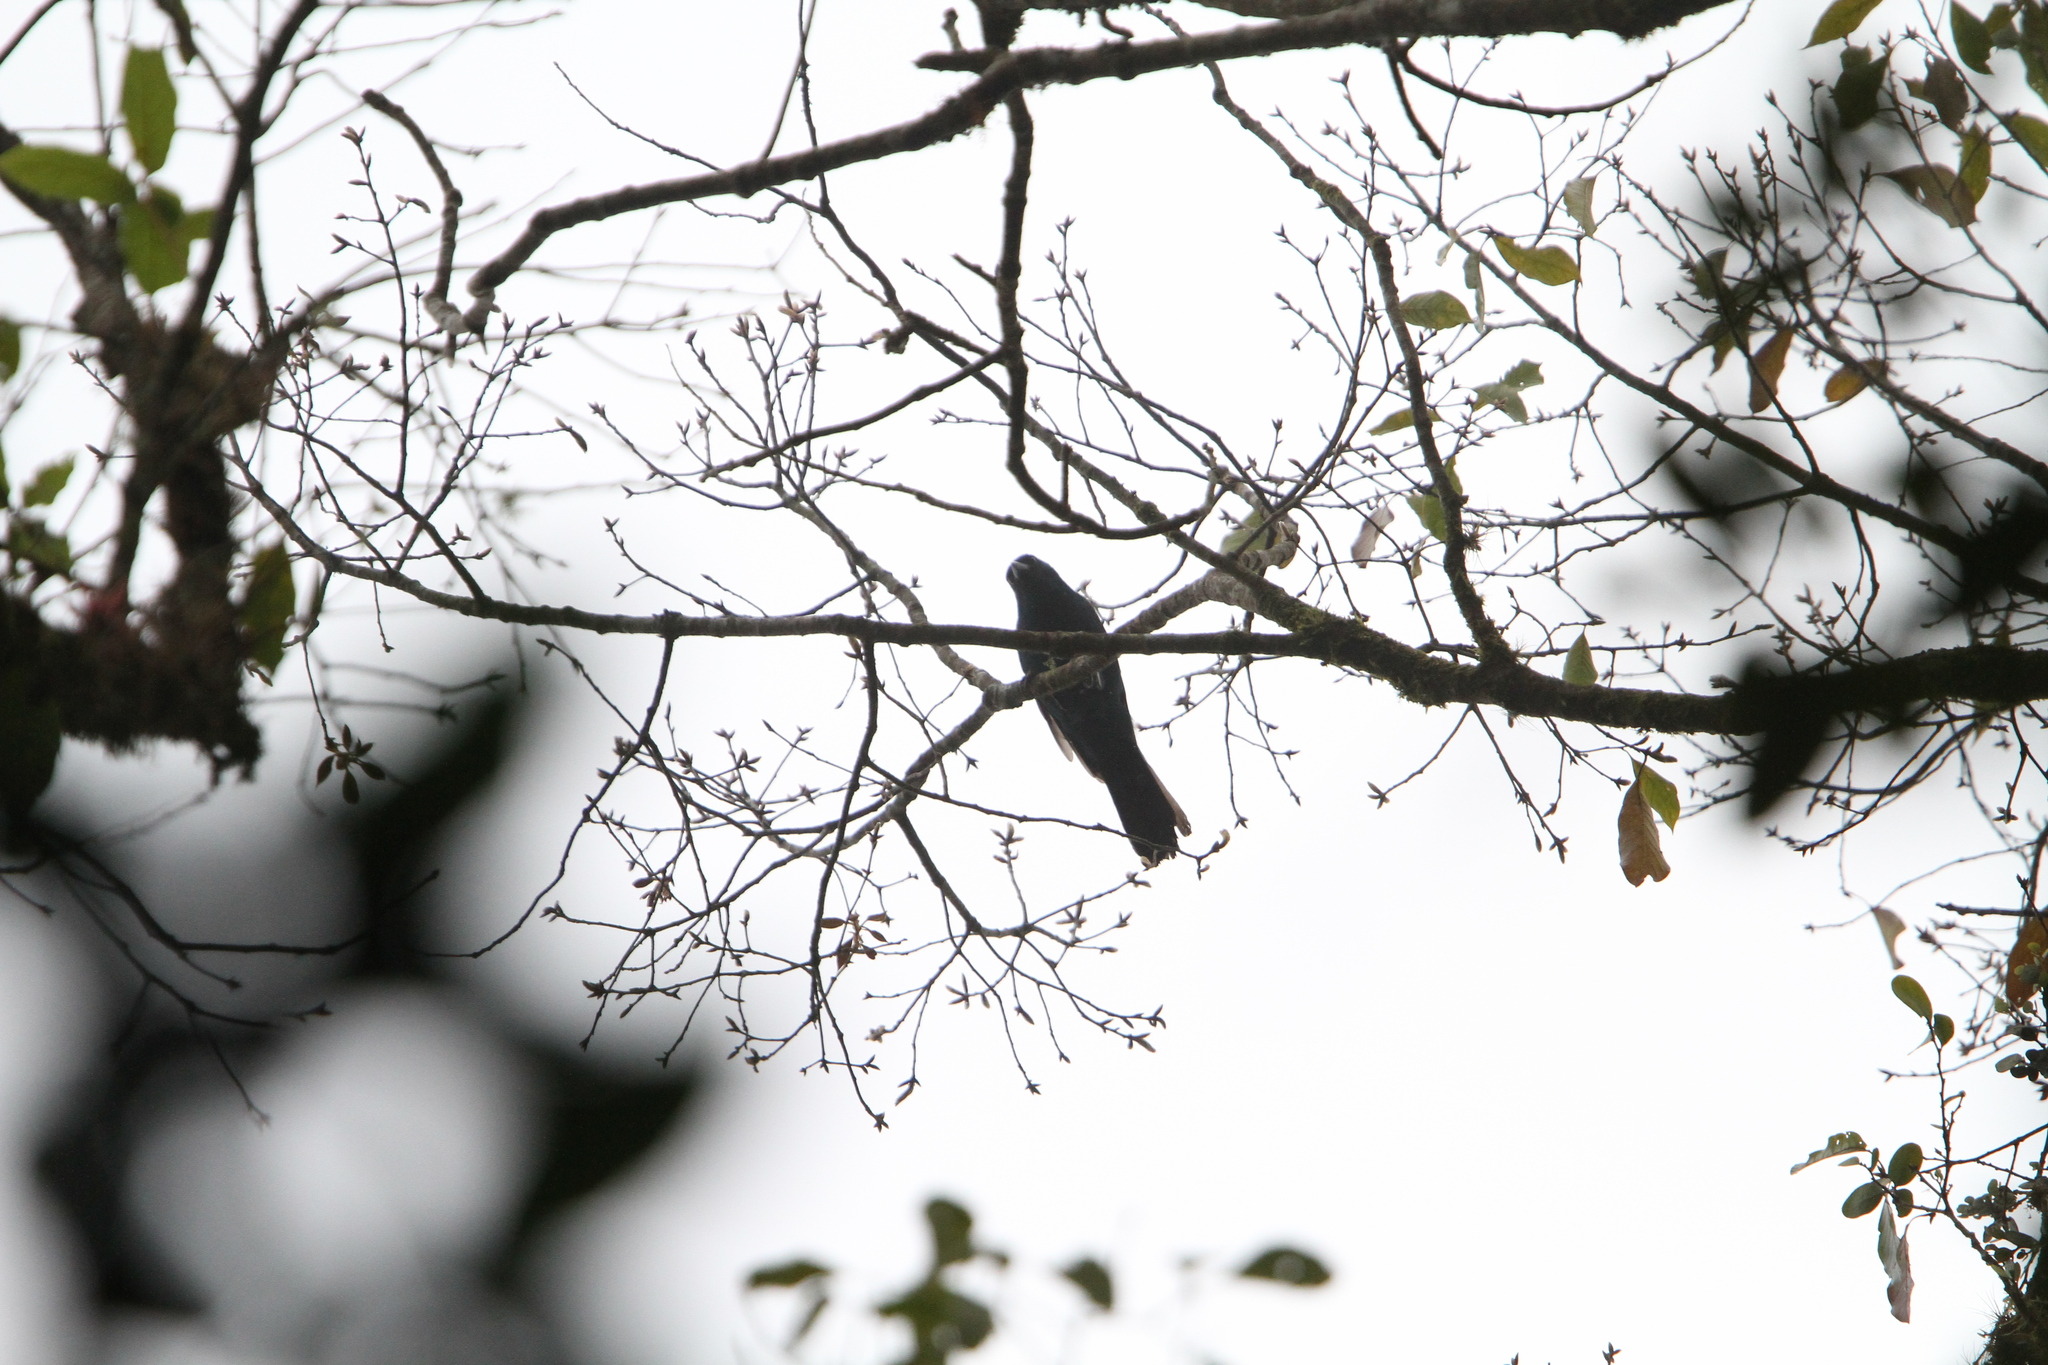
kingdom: Animalia
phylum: Chordata
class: Aves
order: Passeriformes
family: Corvidae
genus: Aphelocoma
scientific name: Aphelocoma unicolor
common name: Unicolored jay
